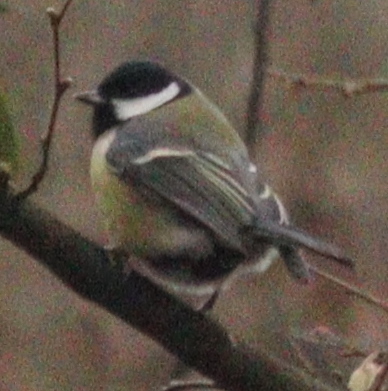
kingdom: Animalia
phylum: Chordata
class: Aves
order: Passeriformes
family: Paridae
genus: Parus
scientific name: Parus major
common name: Great tit
